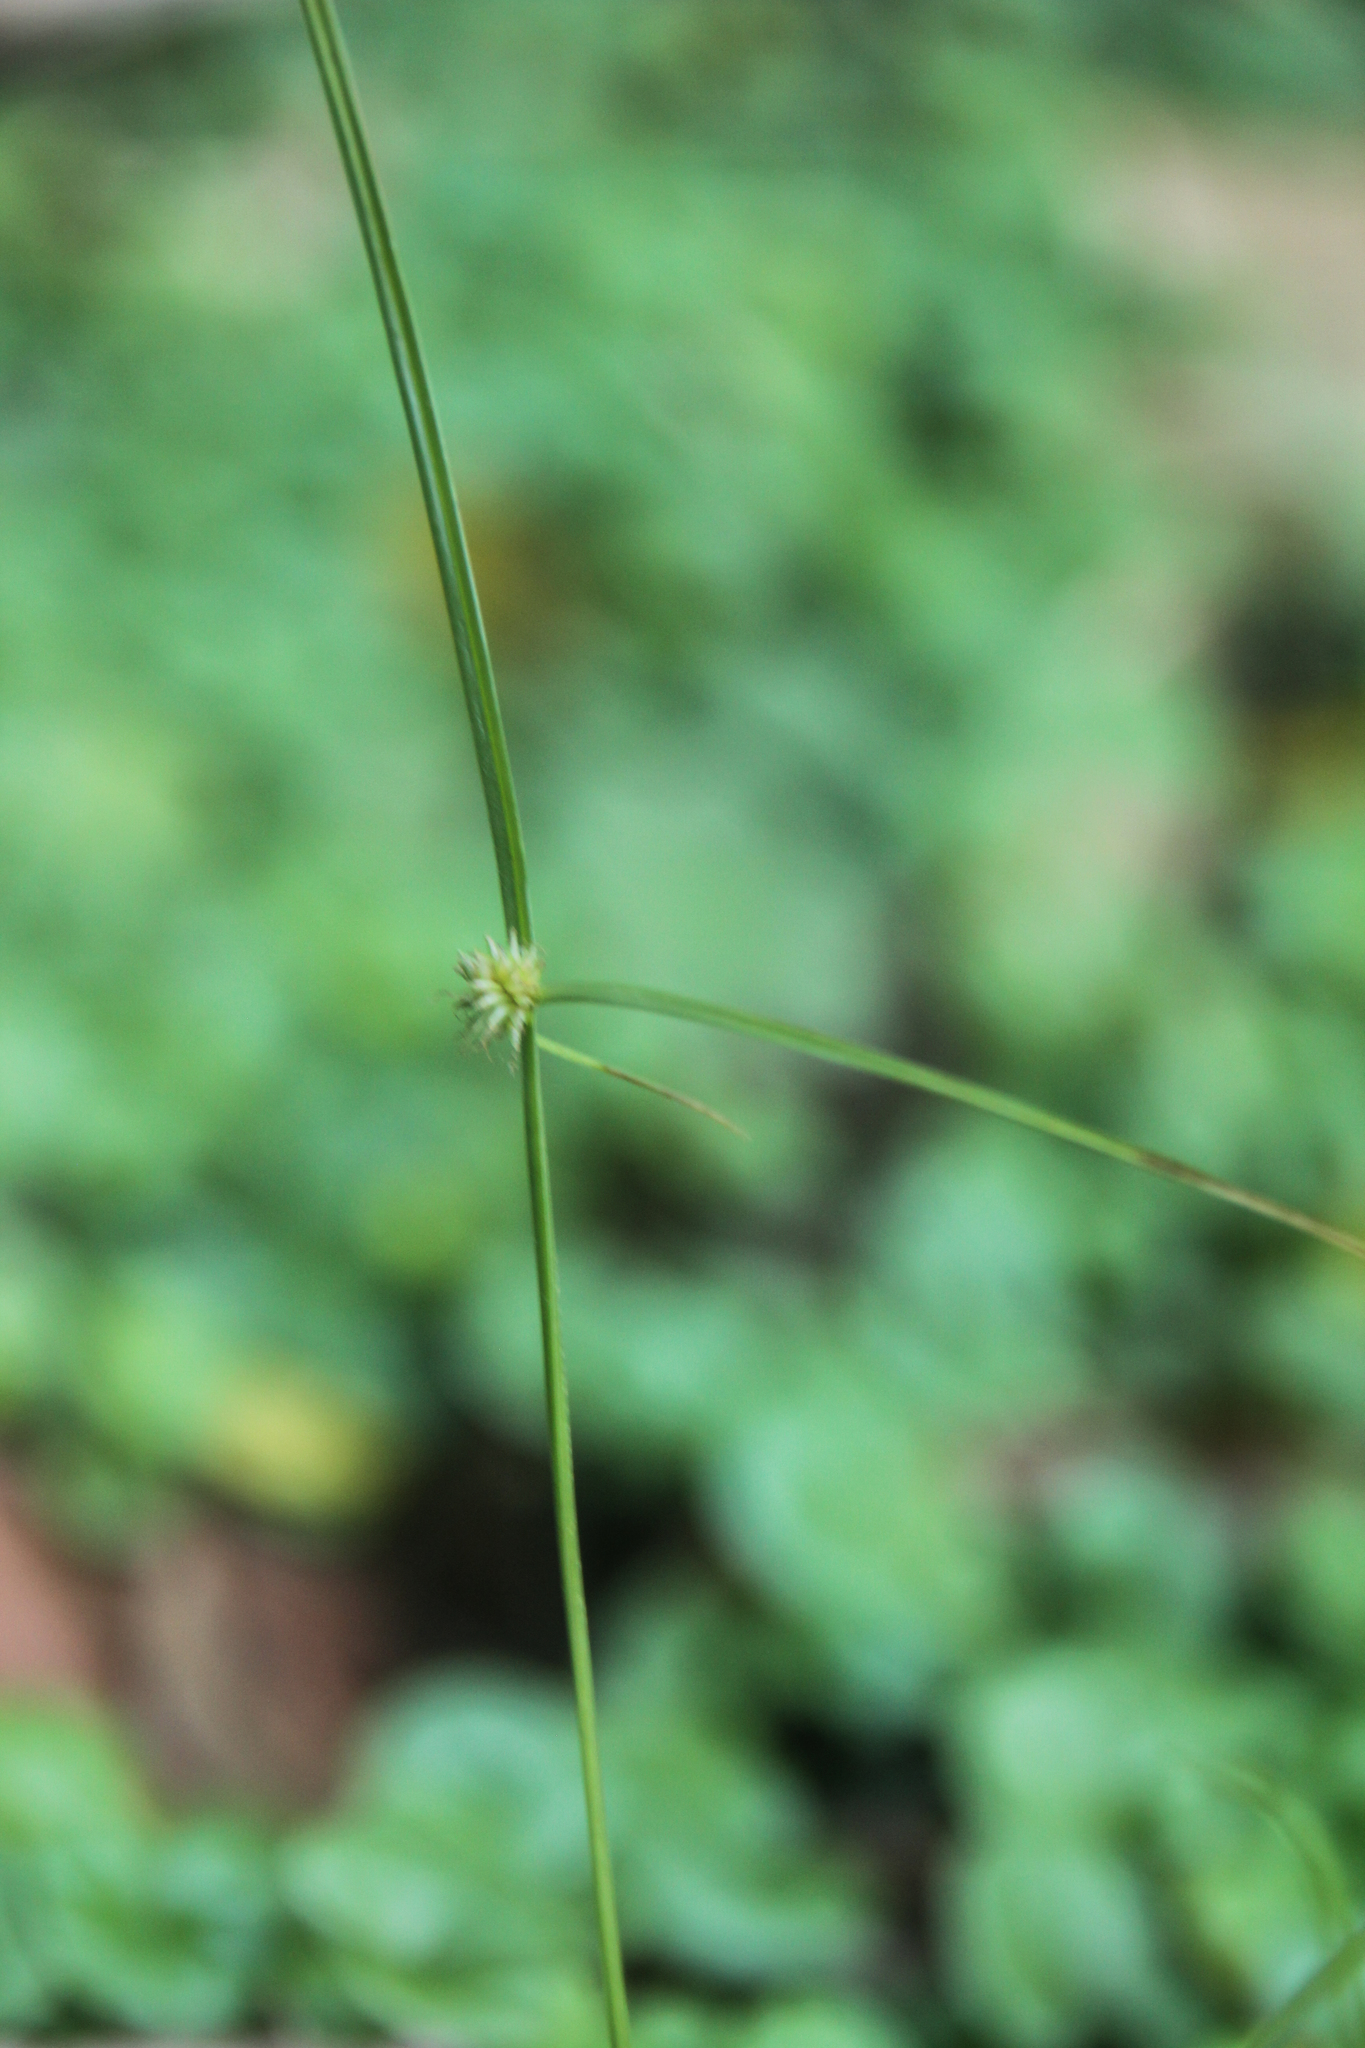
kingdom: Plantae
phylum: Tracheophyta
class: Liliopsida
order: Poales
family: Cyperaceae
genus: Cyperus
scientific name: Cyperus brevifolius
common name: Globe kyllinga
